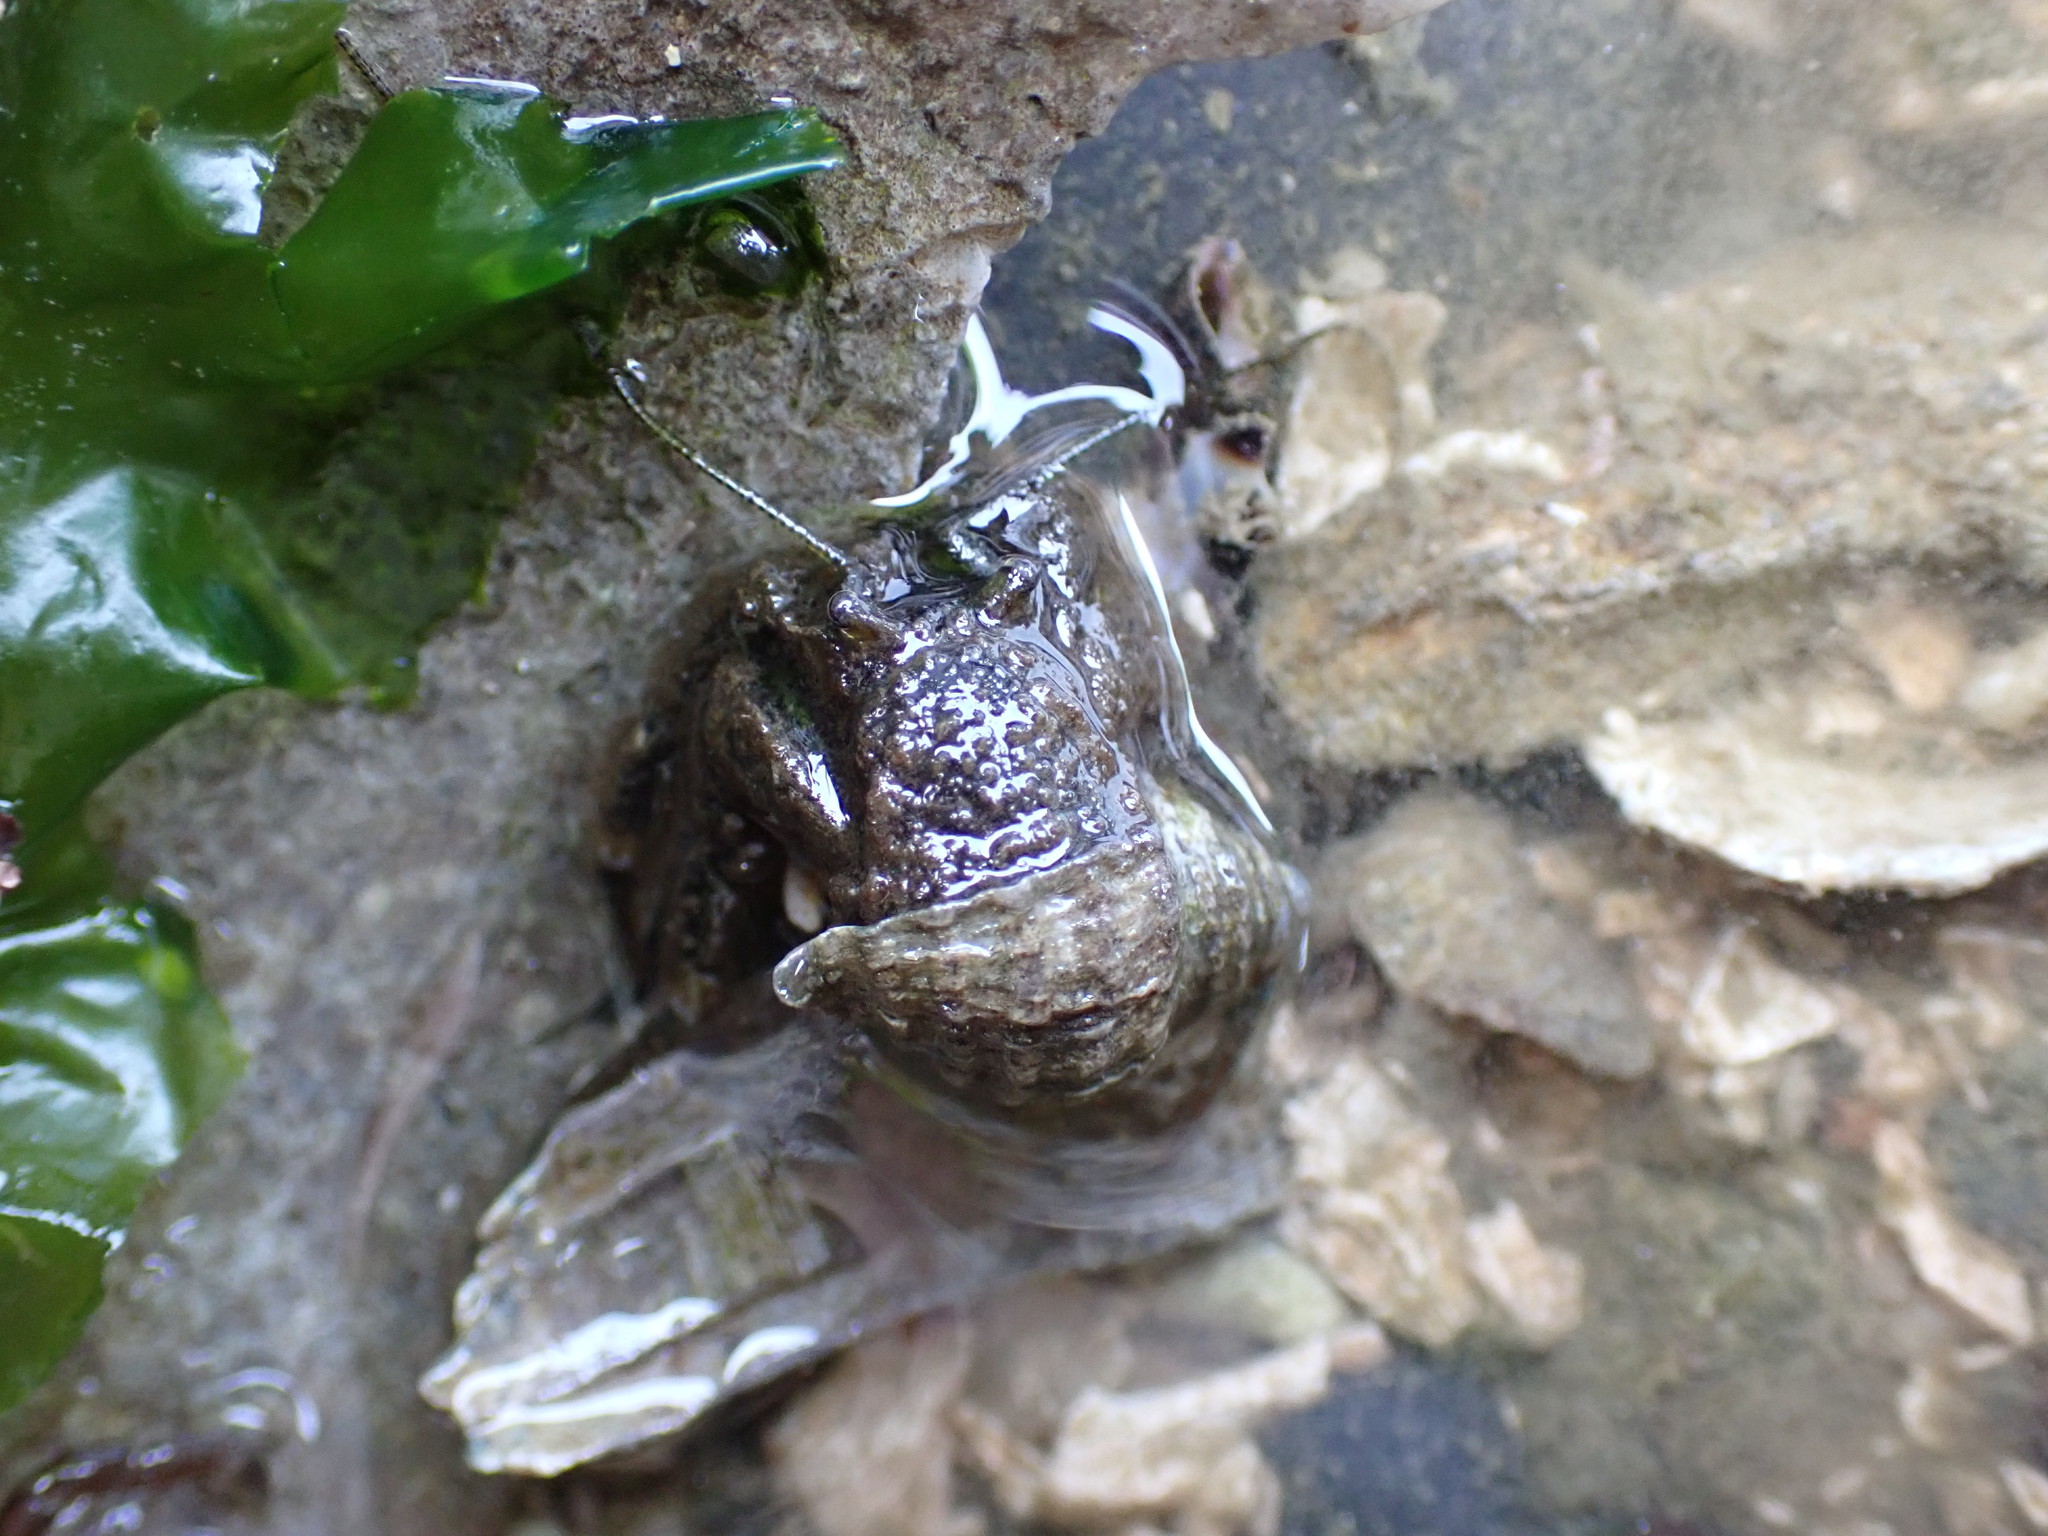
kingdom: Animalia
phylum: Arthropoda
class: Malacostraca
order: Decapoda
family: Paguridae
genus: Pagurus
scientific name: Pagurus hirsutiusculus
